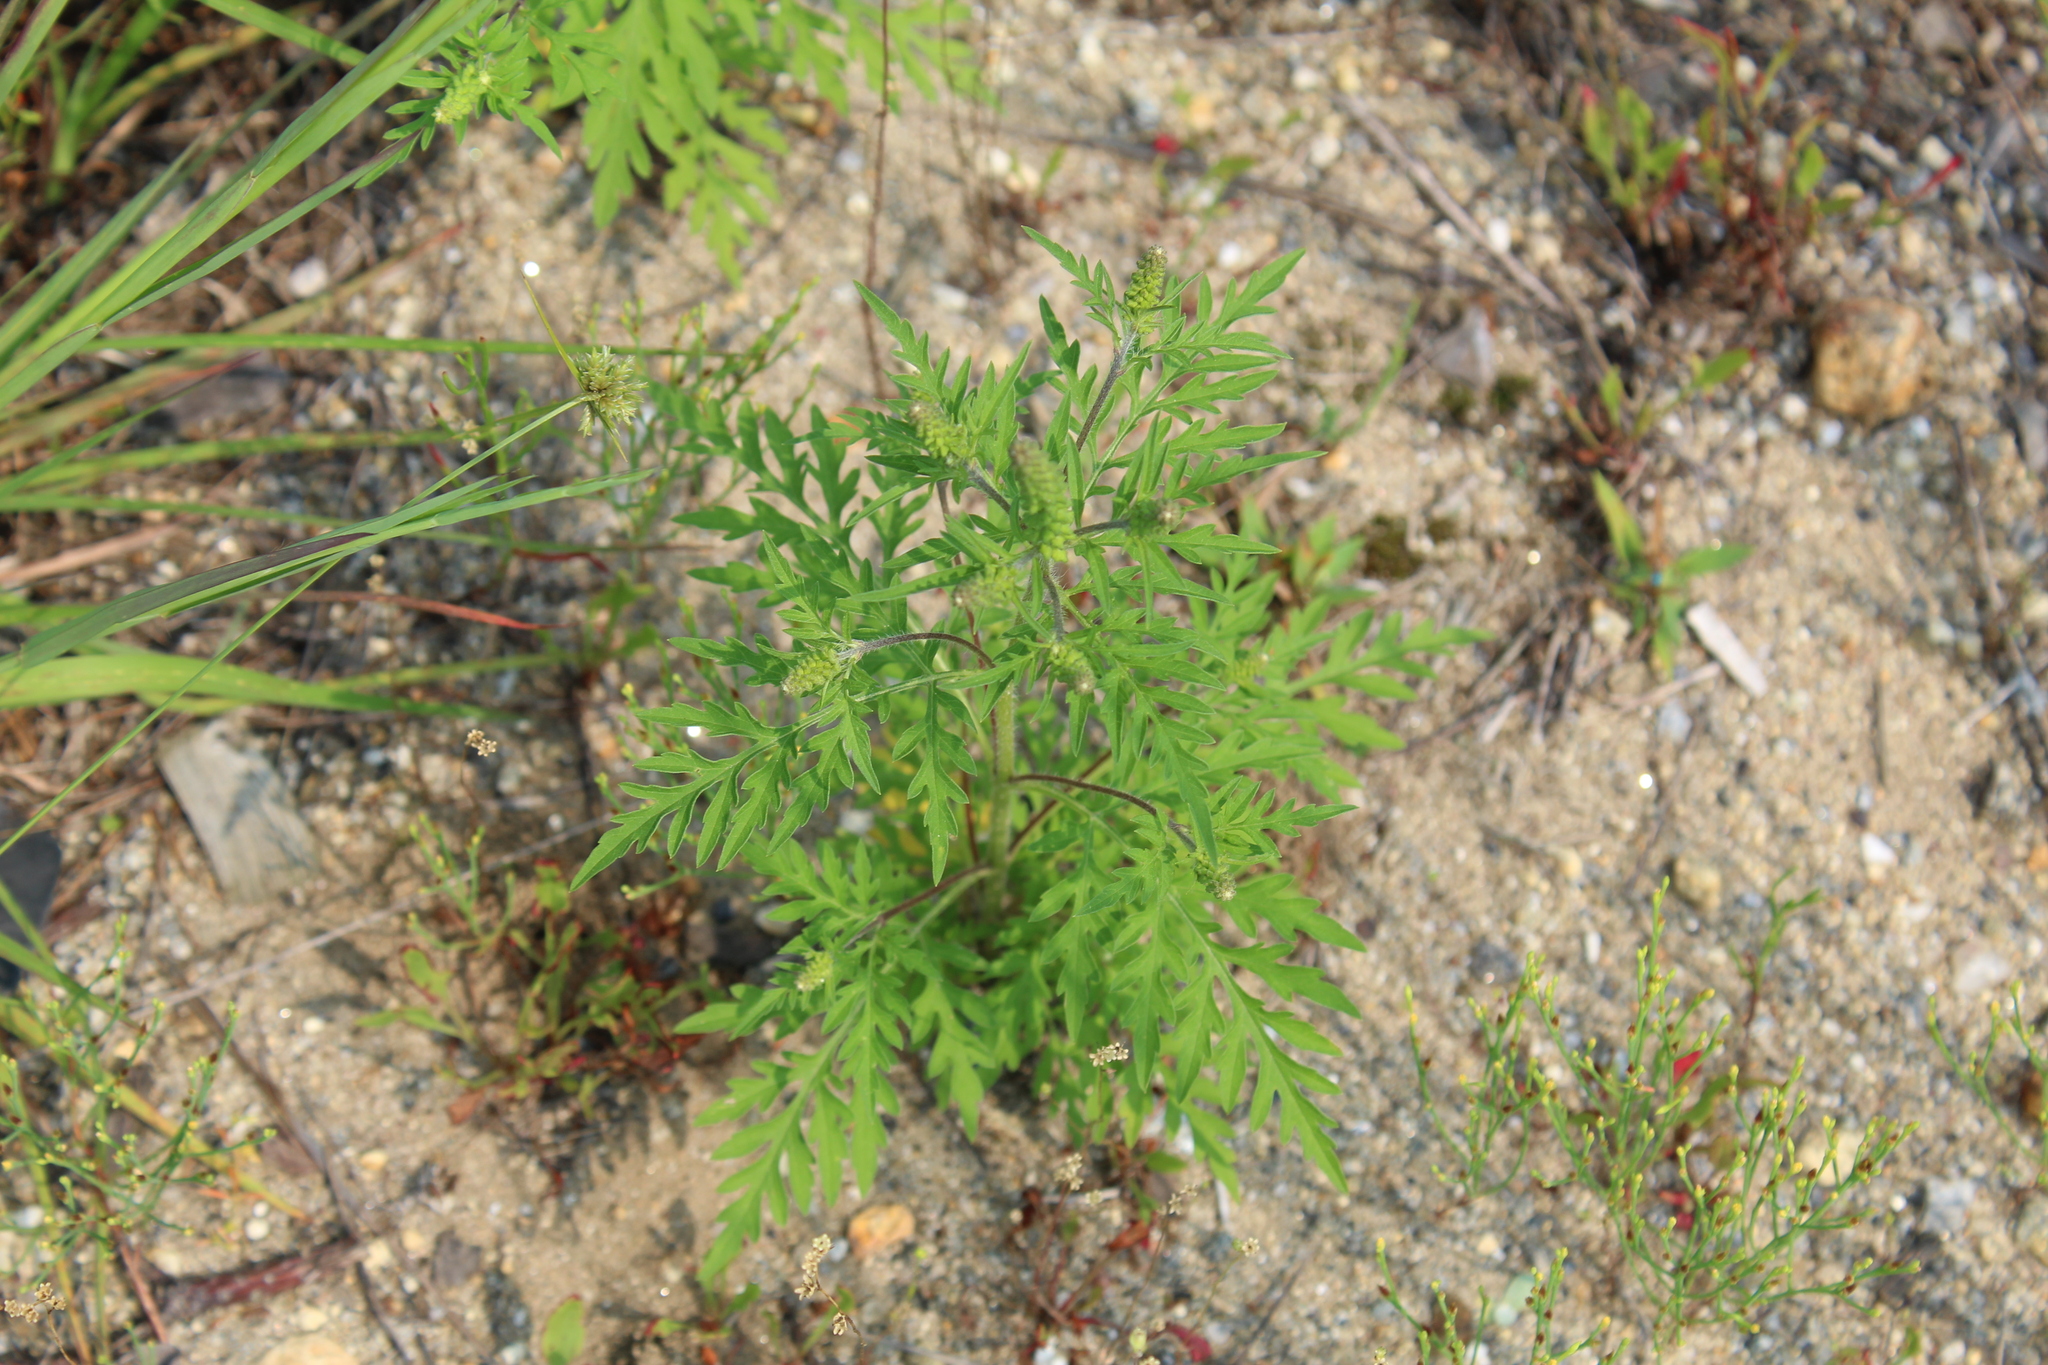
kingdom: Plantae
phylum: Tracheophyta
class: Magnoliopsida
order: Asterales
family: Asteraceae
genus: Ambrosia
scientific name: Ambrosia artemisiifolia
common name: Annual ragweed
